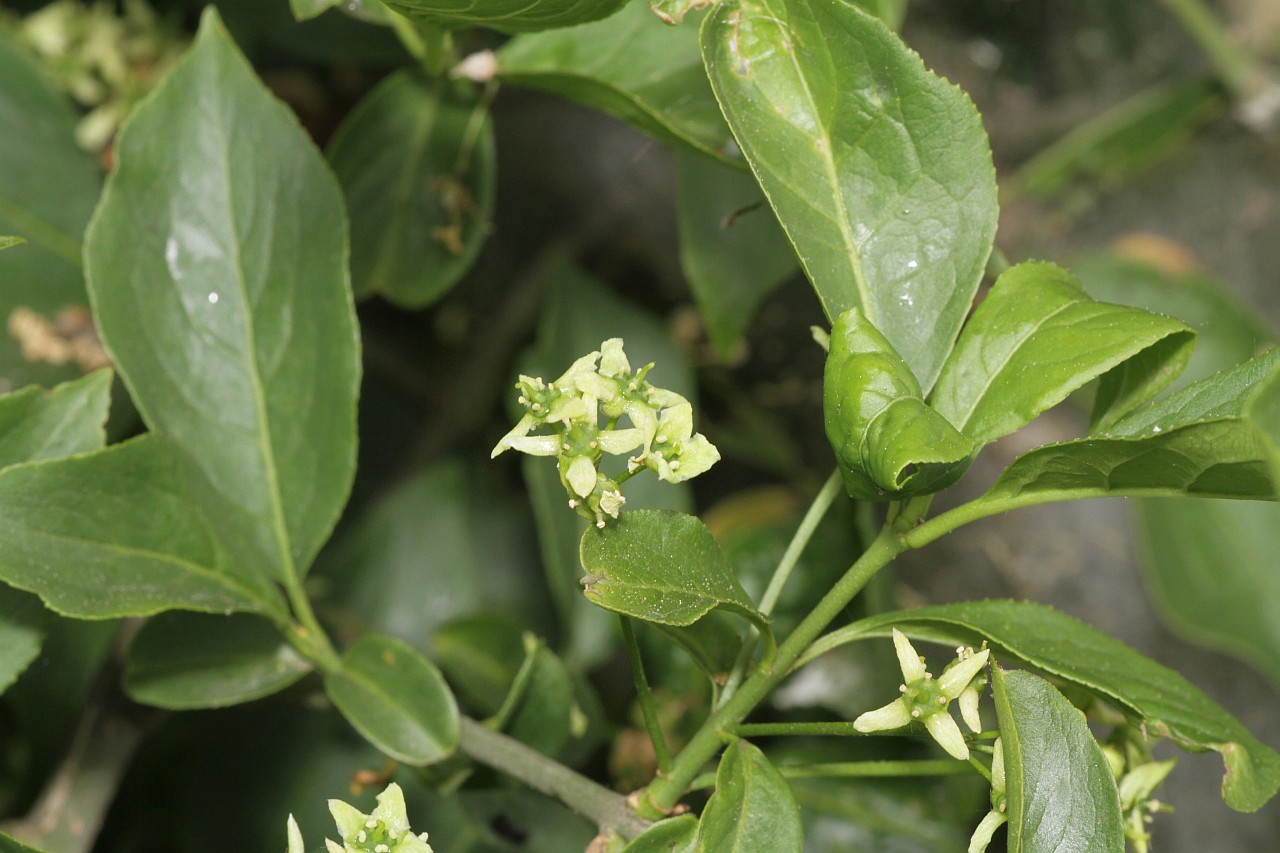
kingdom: Plantae
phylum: Tracheophyta
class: Magnoliopsida
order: Celastrales
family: Celastraceae
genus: Euonymus
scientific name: Euonymus europaeus
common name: Spindle
